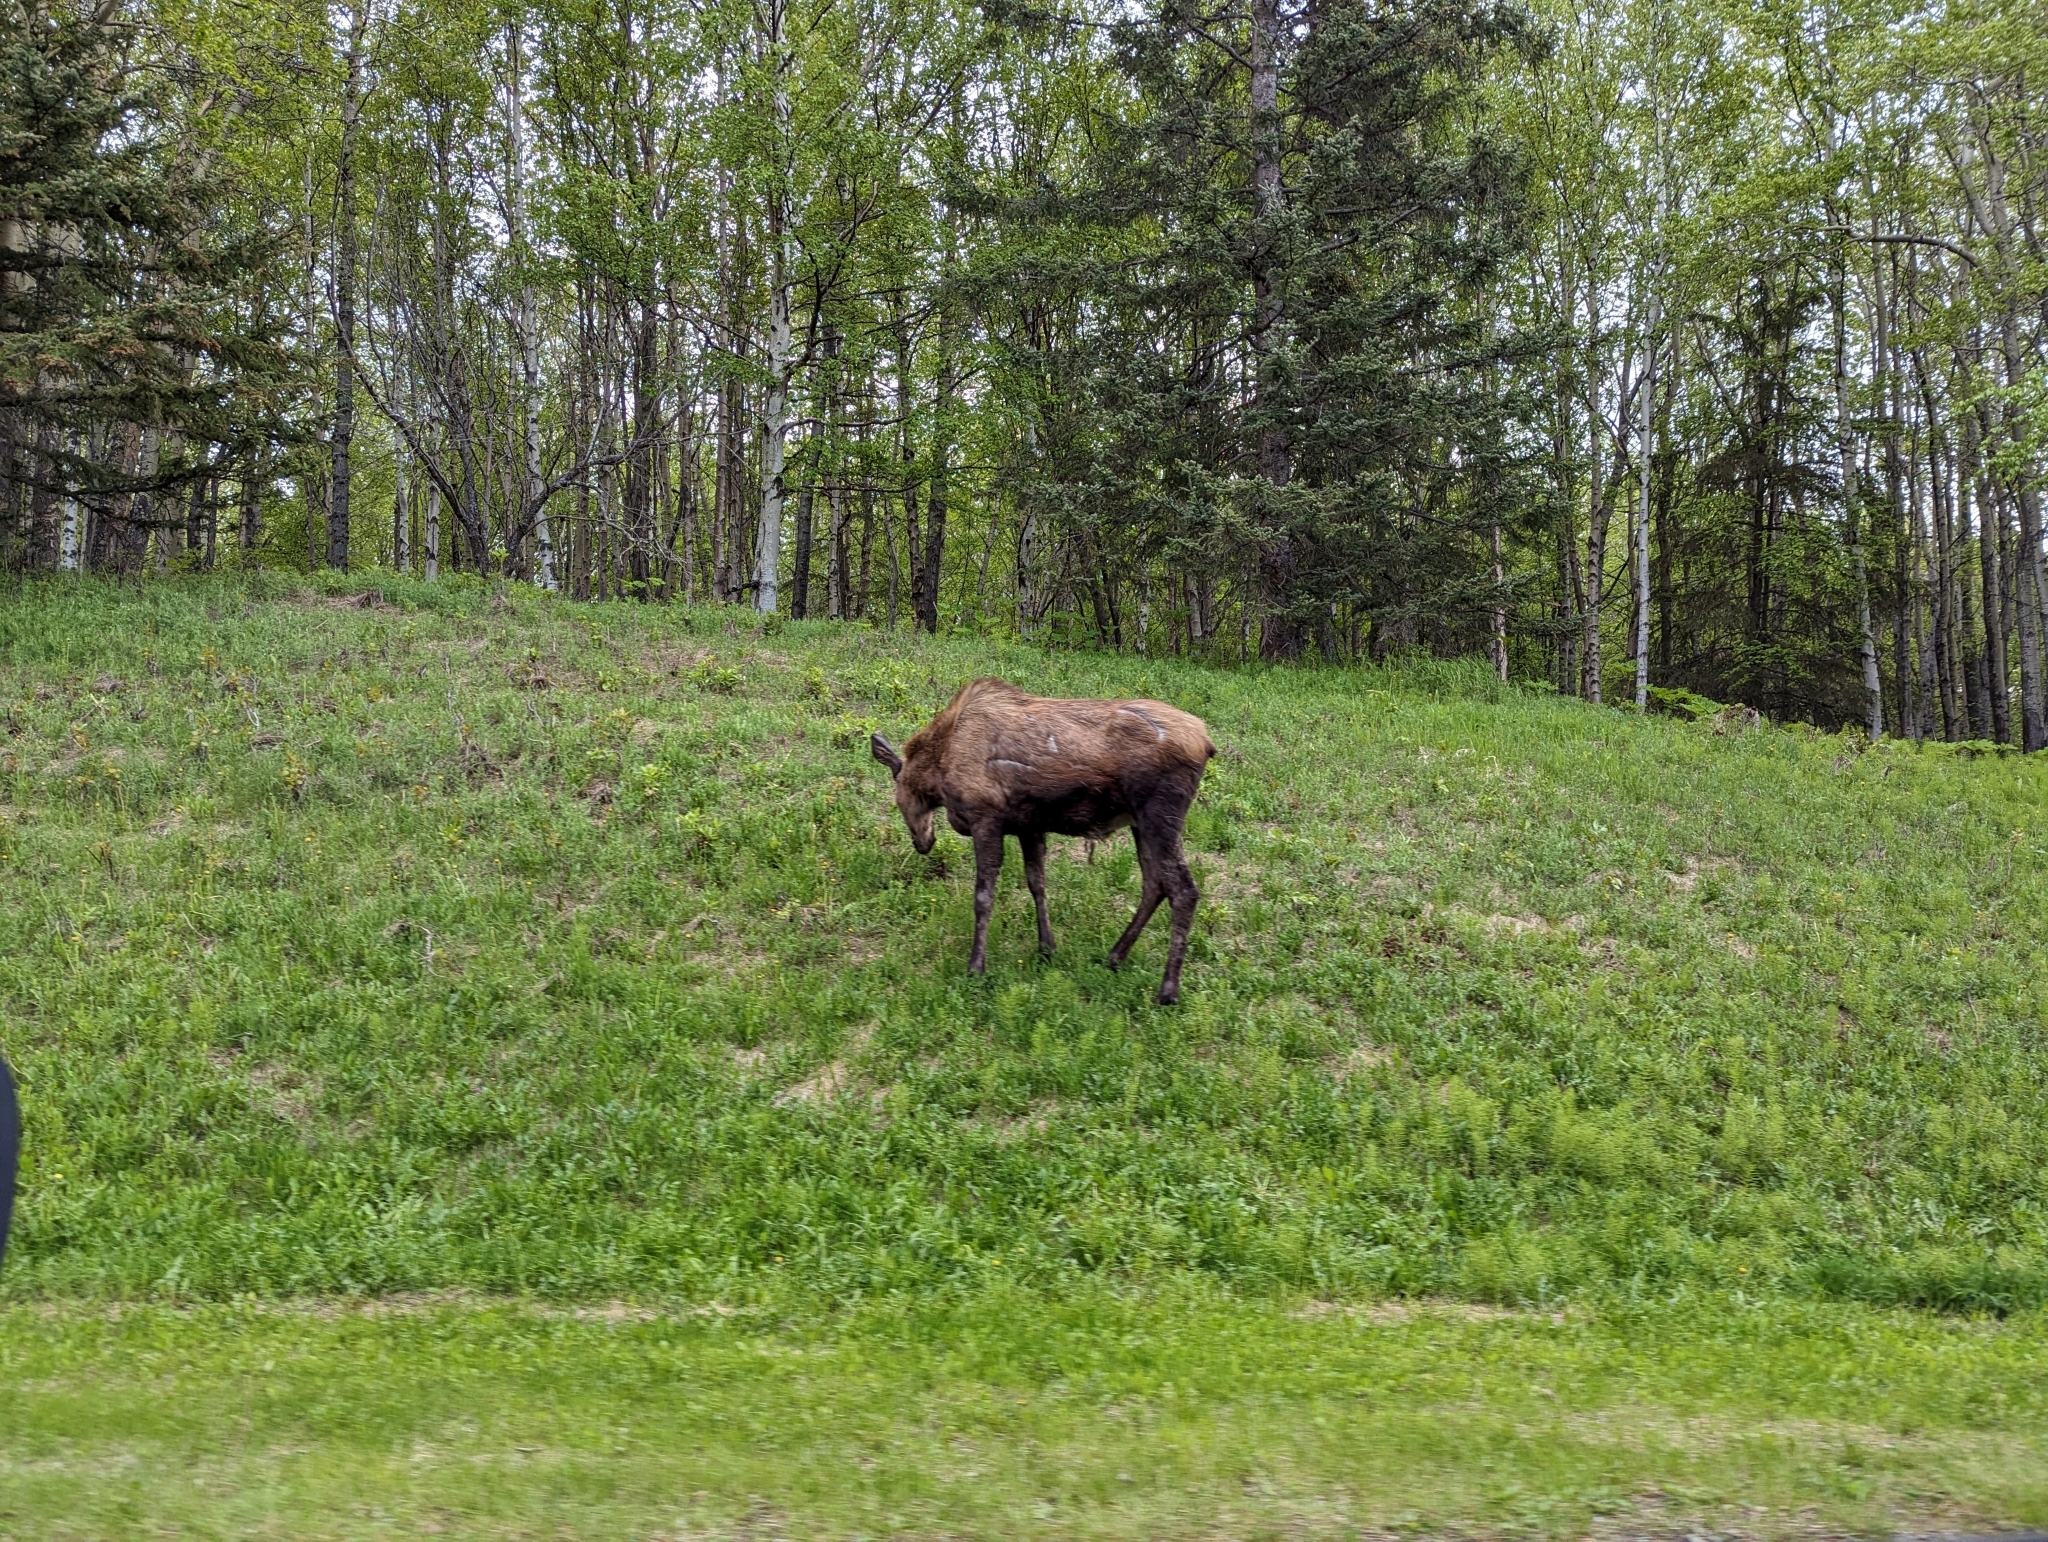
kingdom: Animalia
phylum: Chordata
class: Mammalia
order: Artiodactyla
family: Cervidae
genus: Alces
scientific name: Alces alces
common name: Moose
